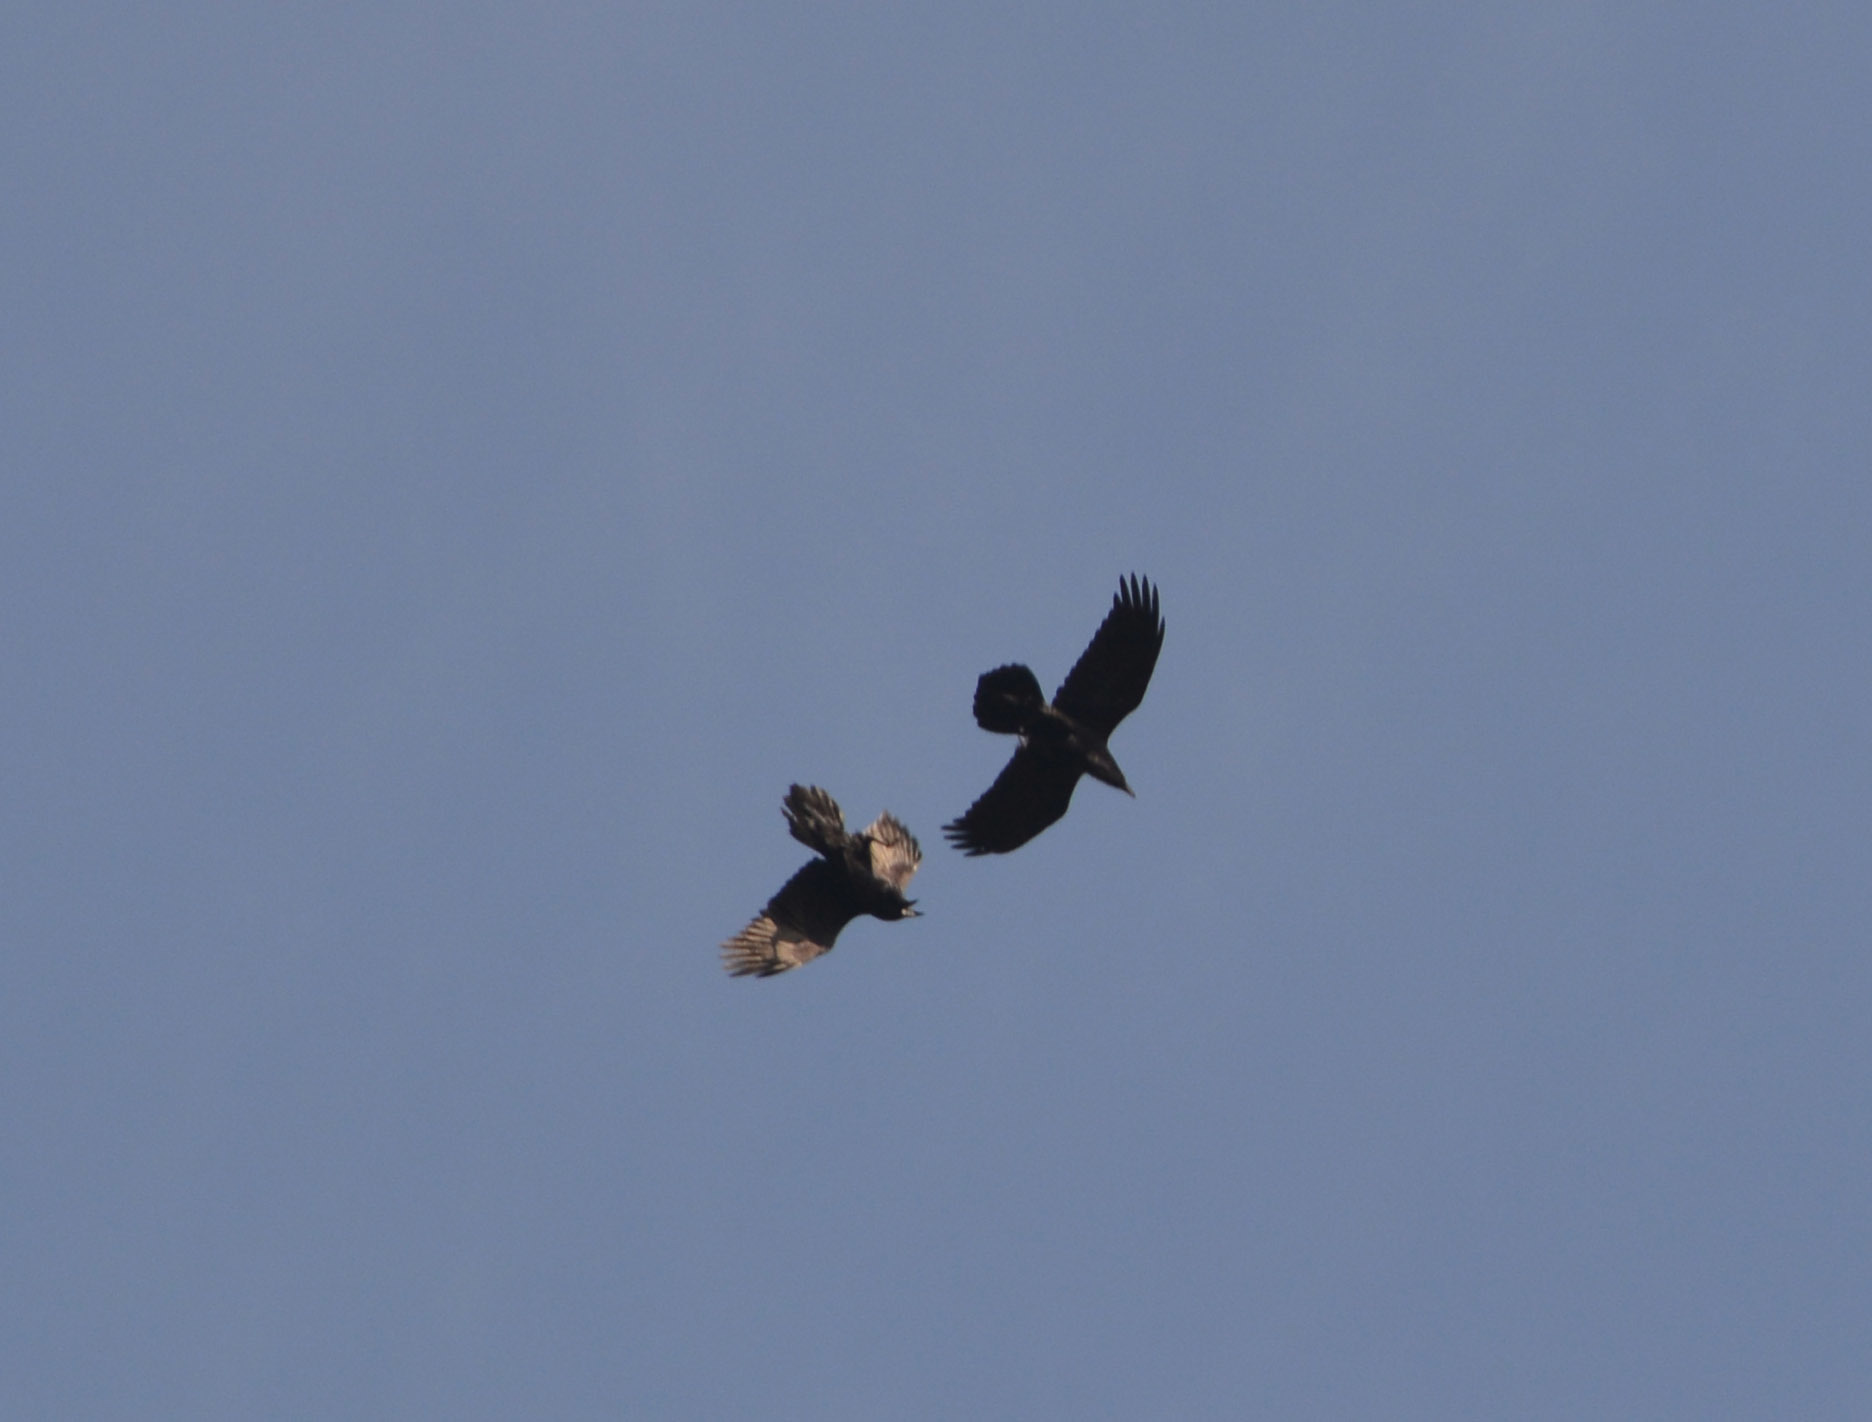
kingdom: Animalia
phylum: Chordata
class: Aves
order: Passeriformes
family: Corvidae
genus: Corvus
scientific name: Corvus corax
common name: Common raven
